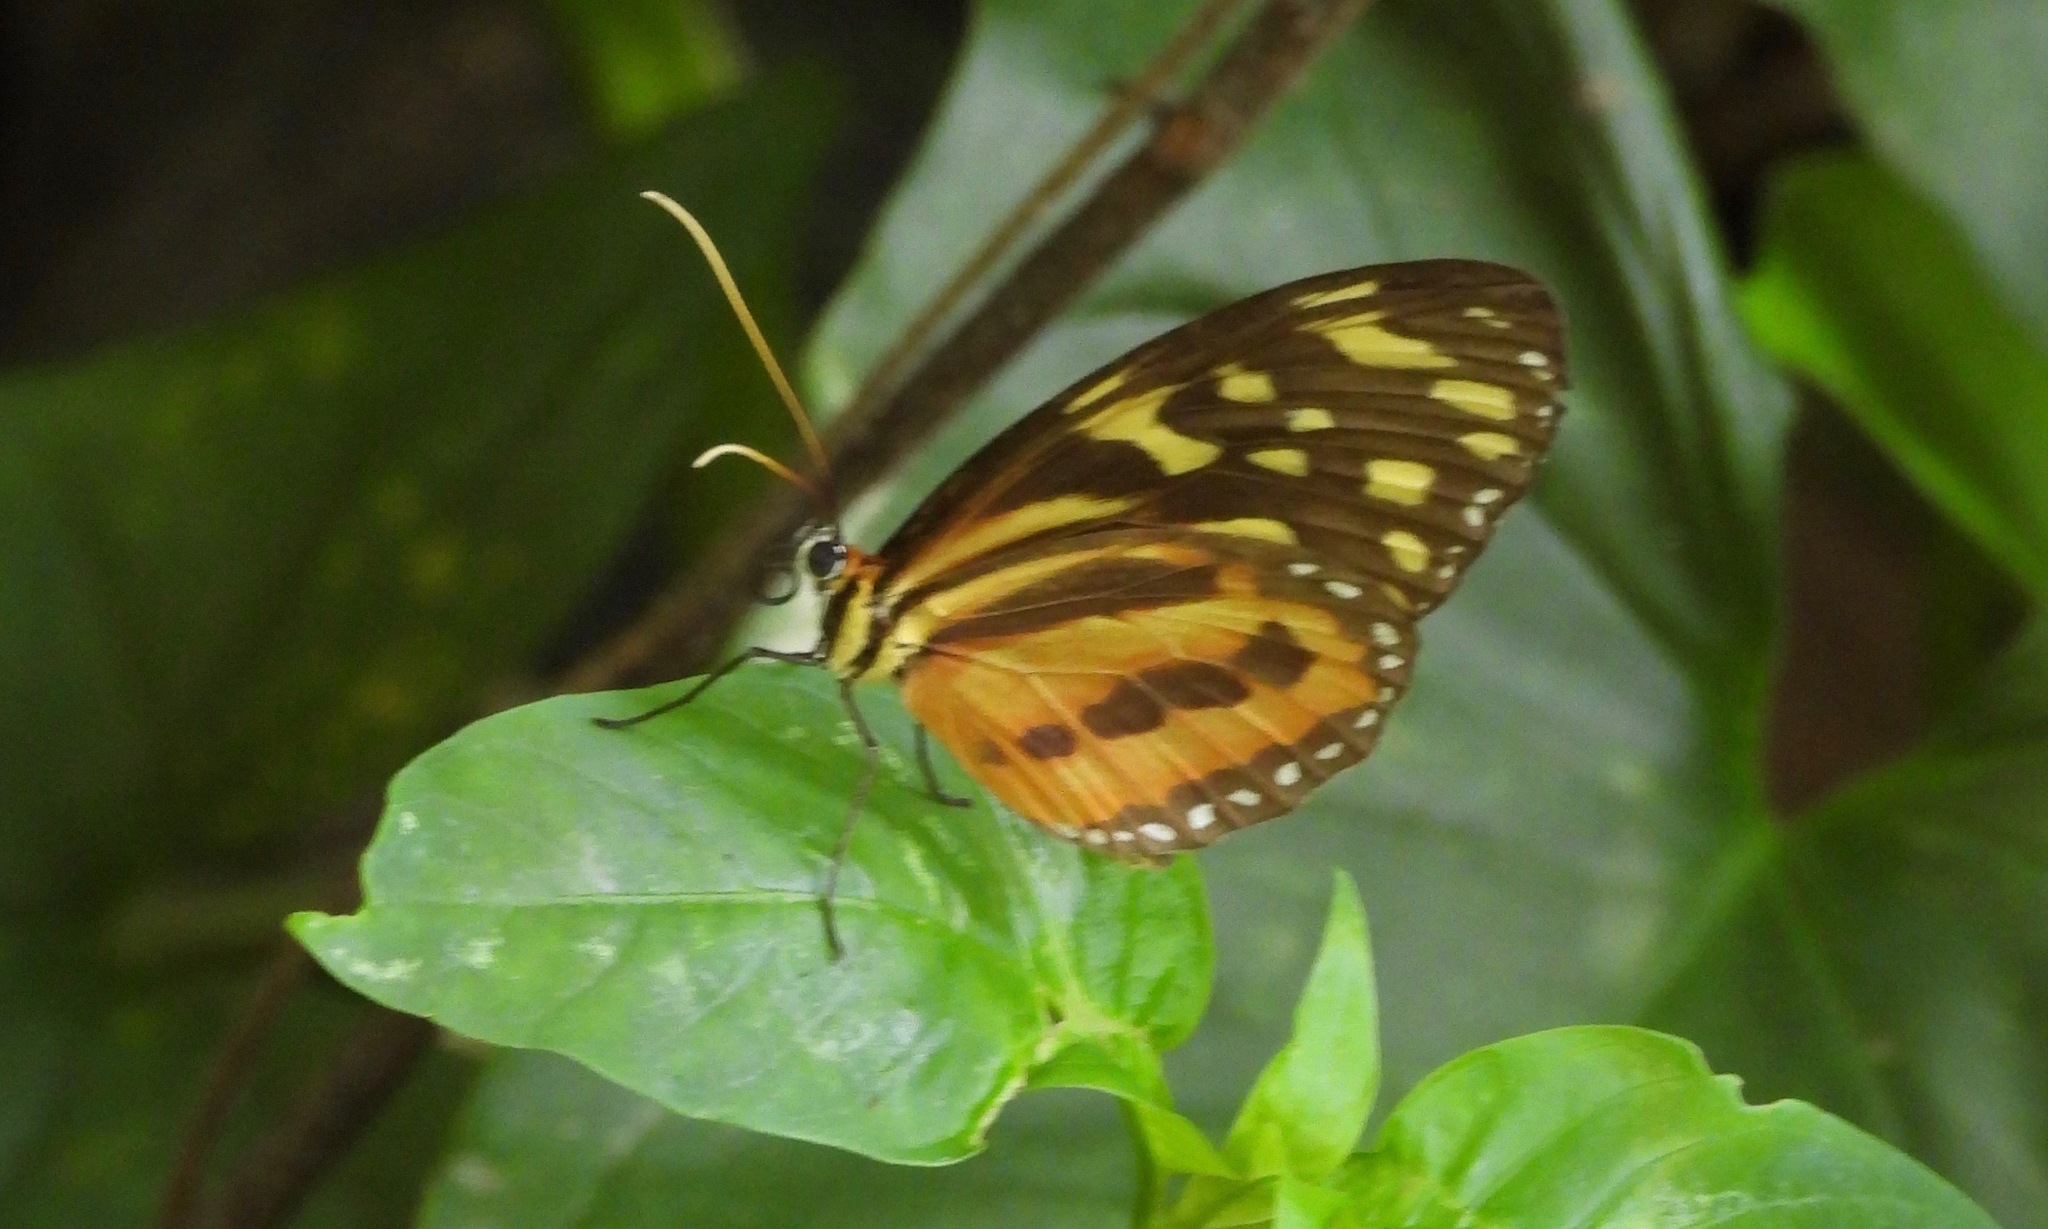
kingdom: Animalia
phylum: Arthropoda
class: Insecta
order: Lepidoptera
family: Nymphalidae
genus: Tithorea
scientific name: Tithorea harmonia
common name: Harmonia tigerwing
